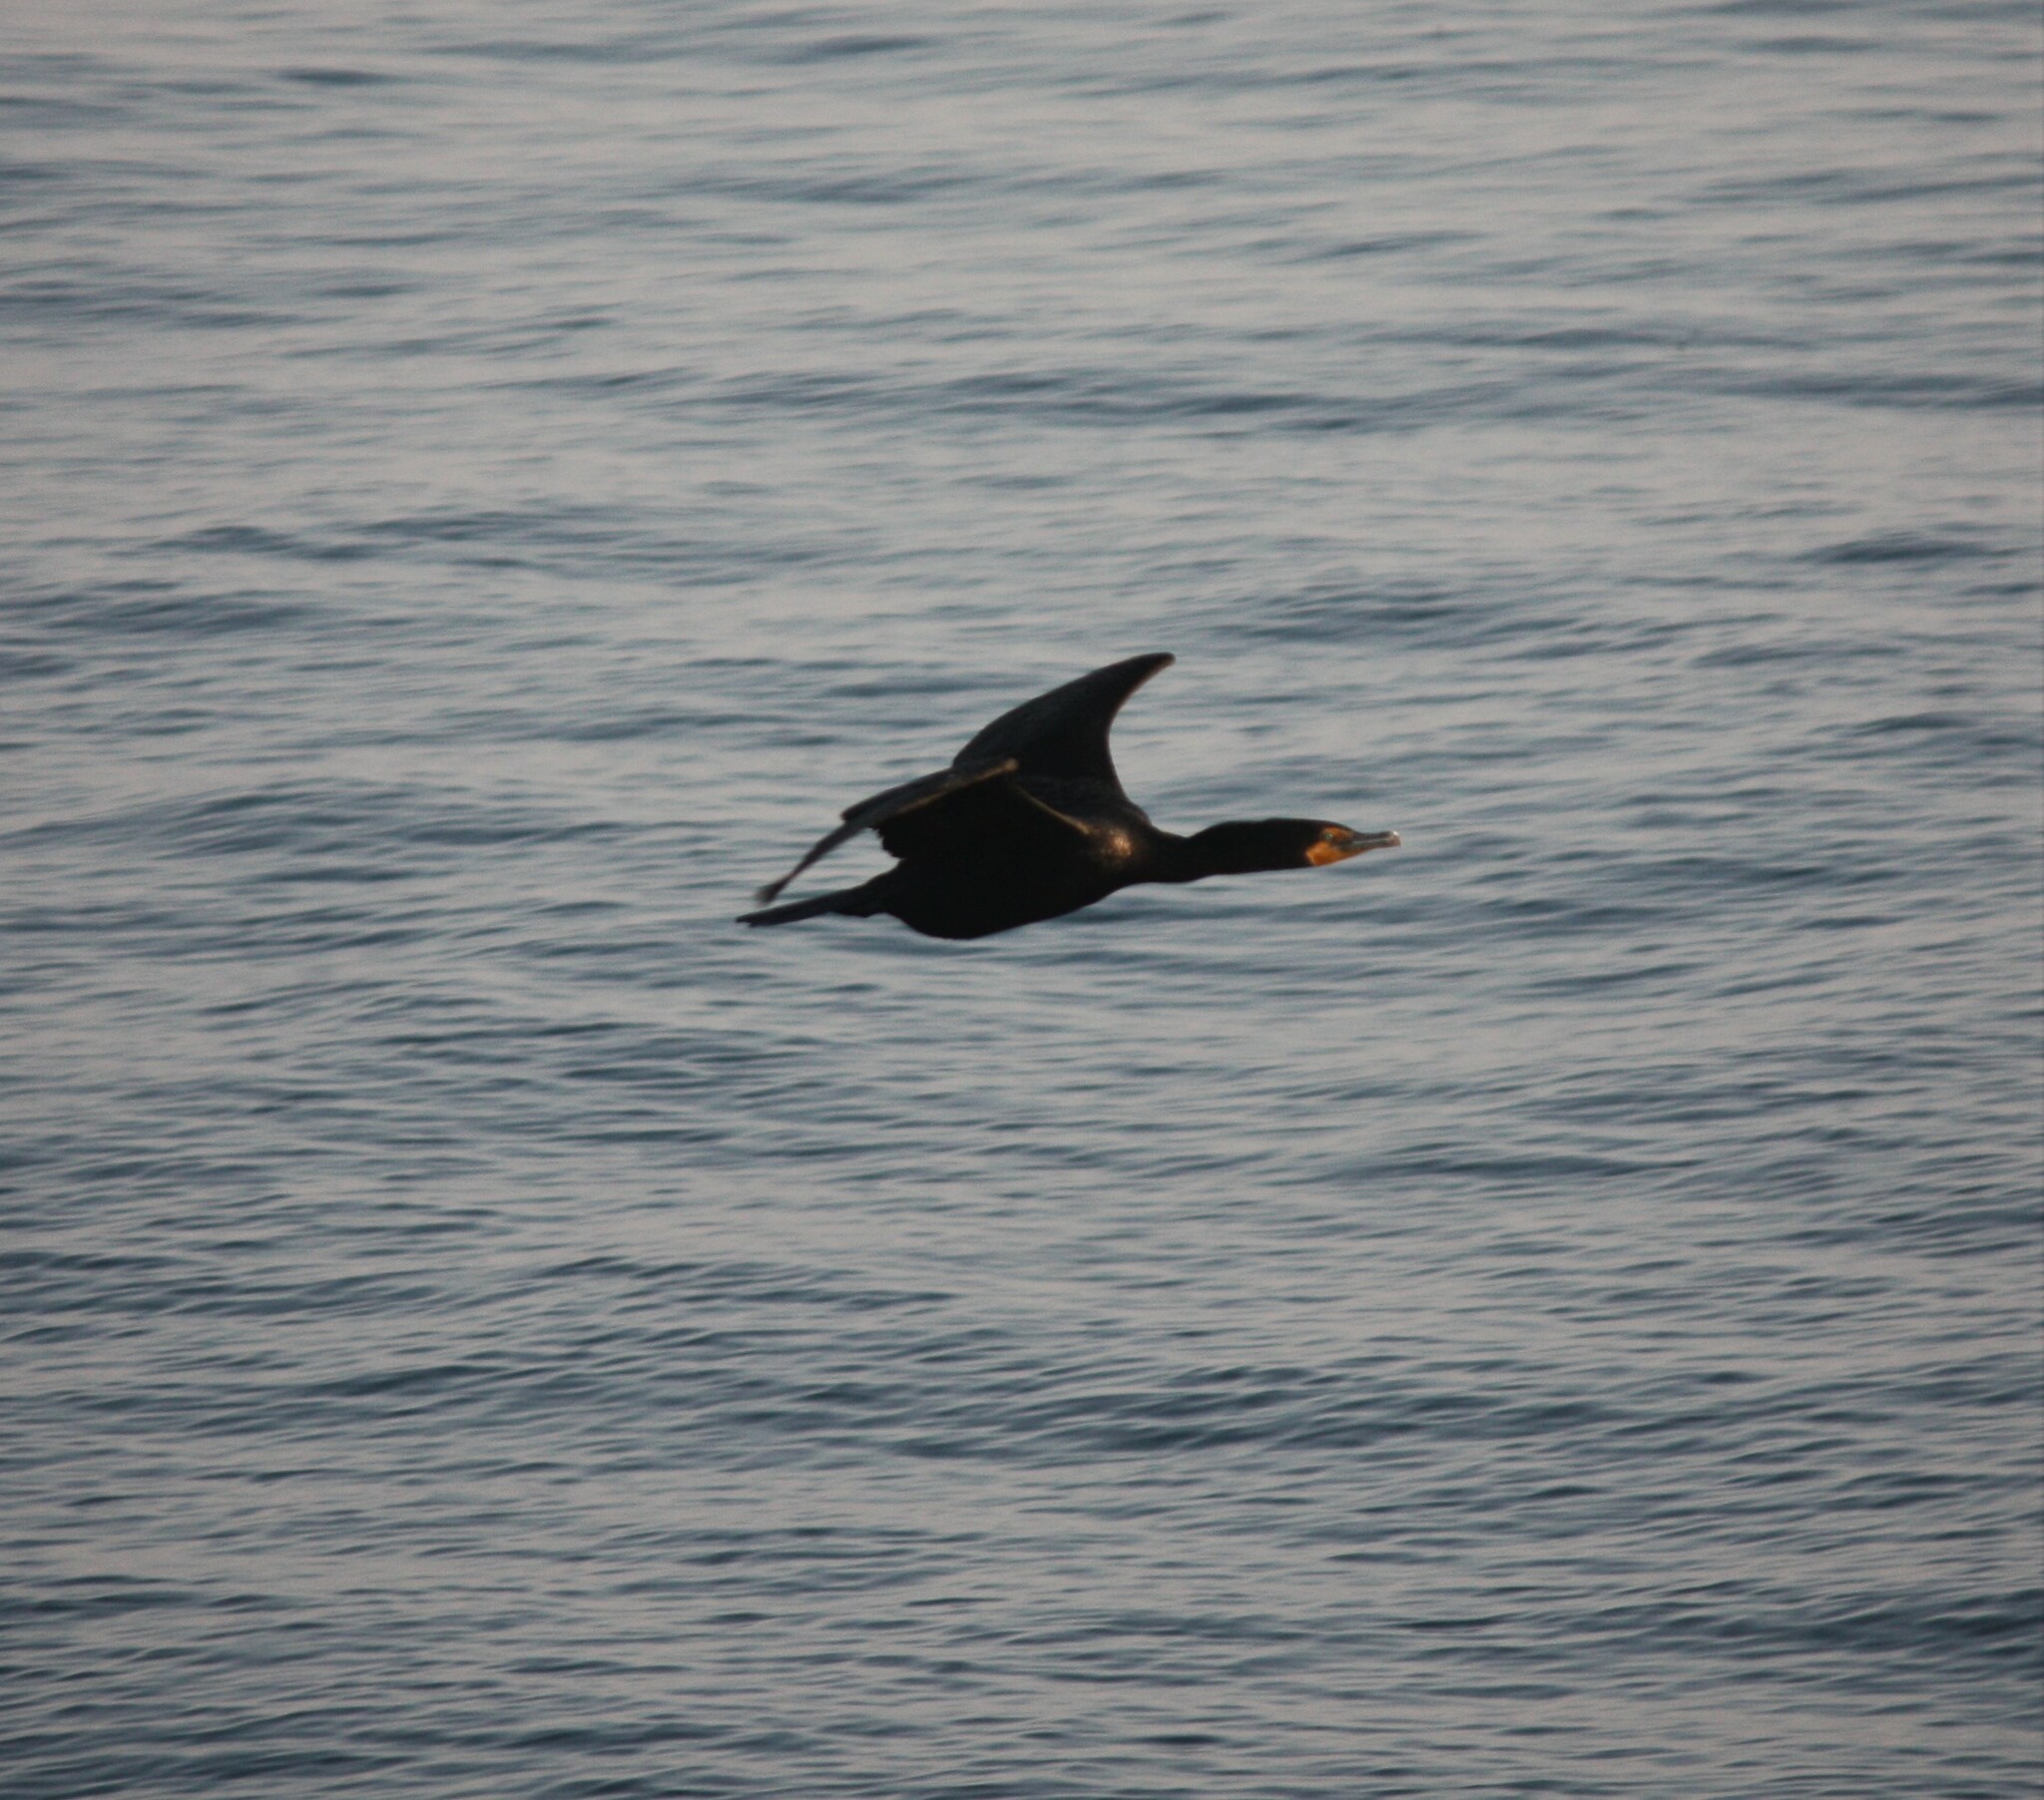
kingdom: Animalia
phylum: Chordata
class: Aves
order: Suliformes
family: Phalacrocoracidae
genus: Phalacrocorax
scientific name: Phalacrocorax auritus
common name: Double-crested cormorant
